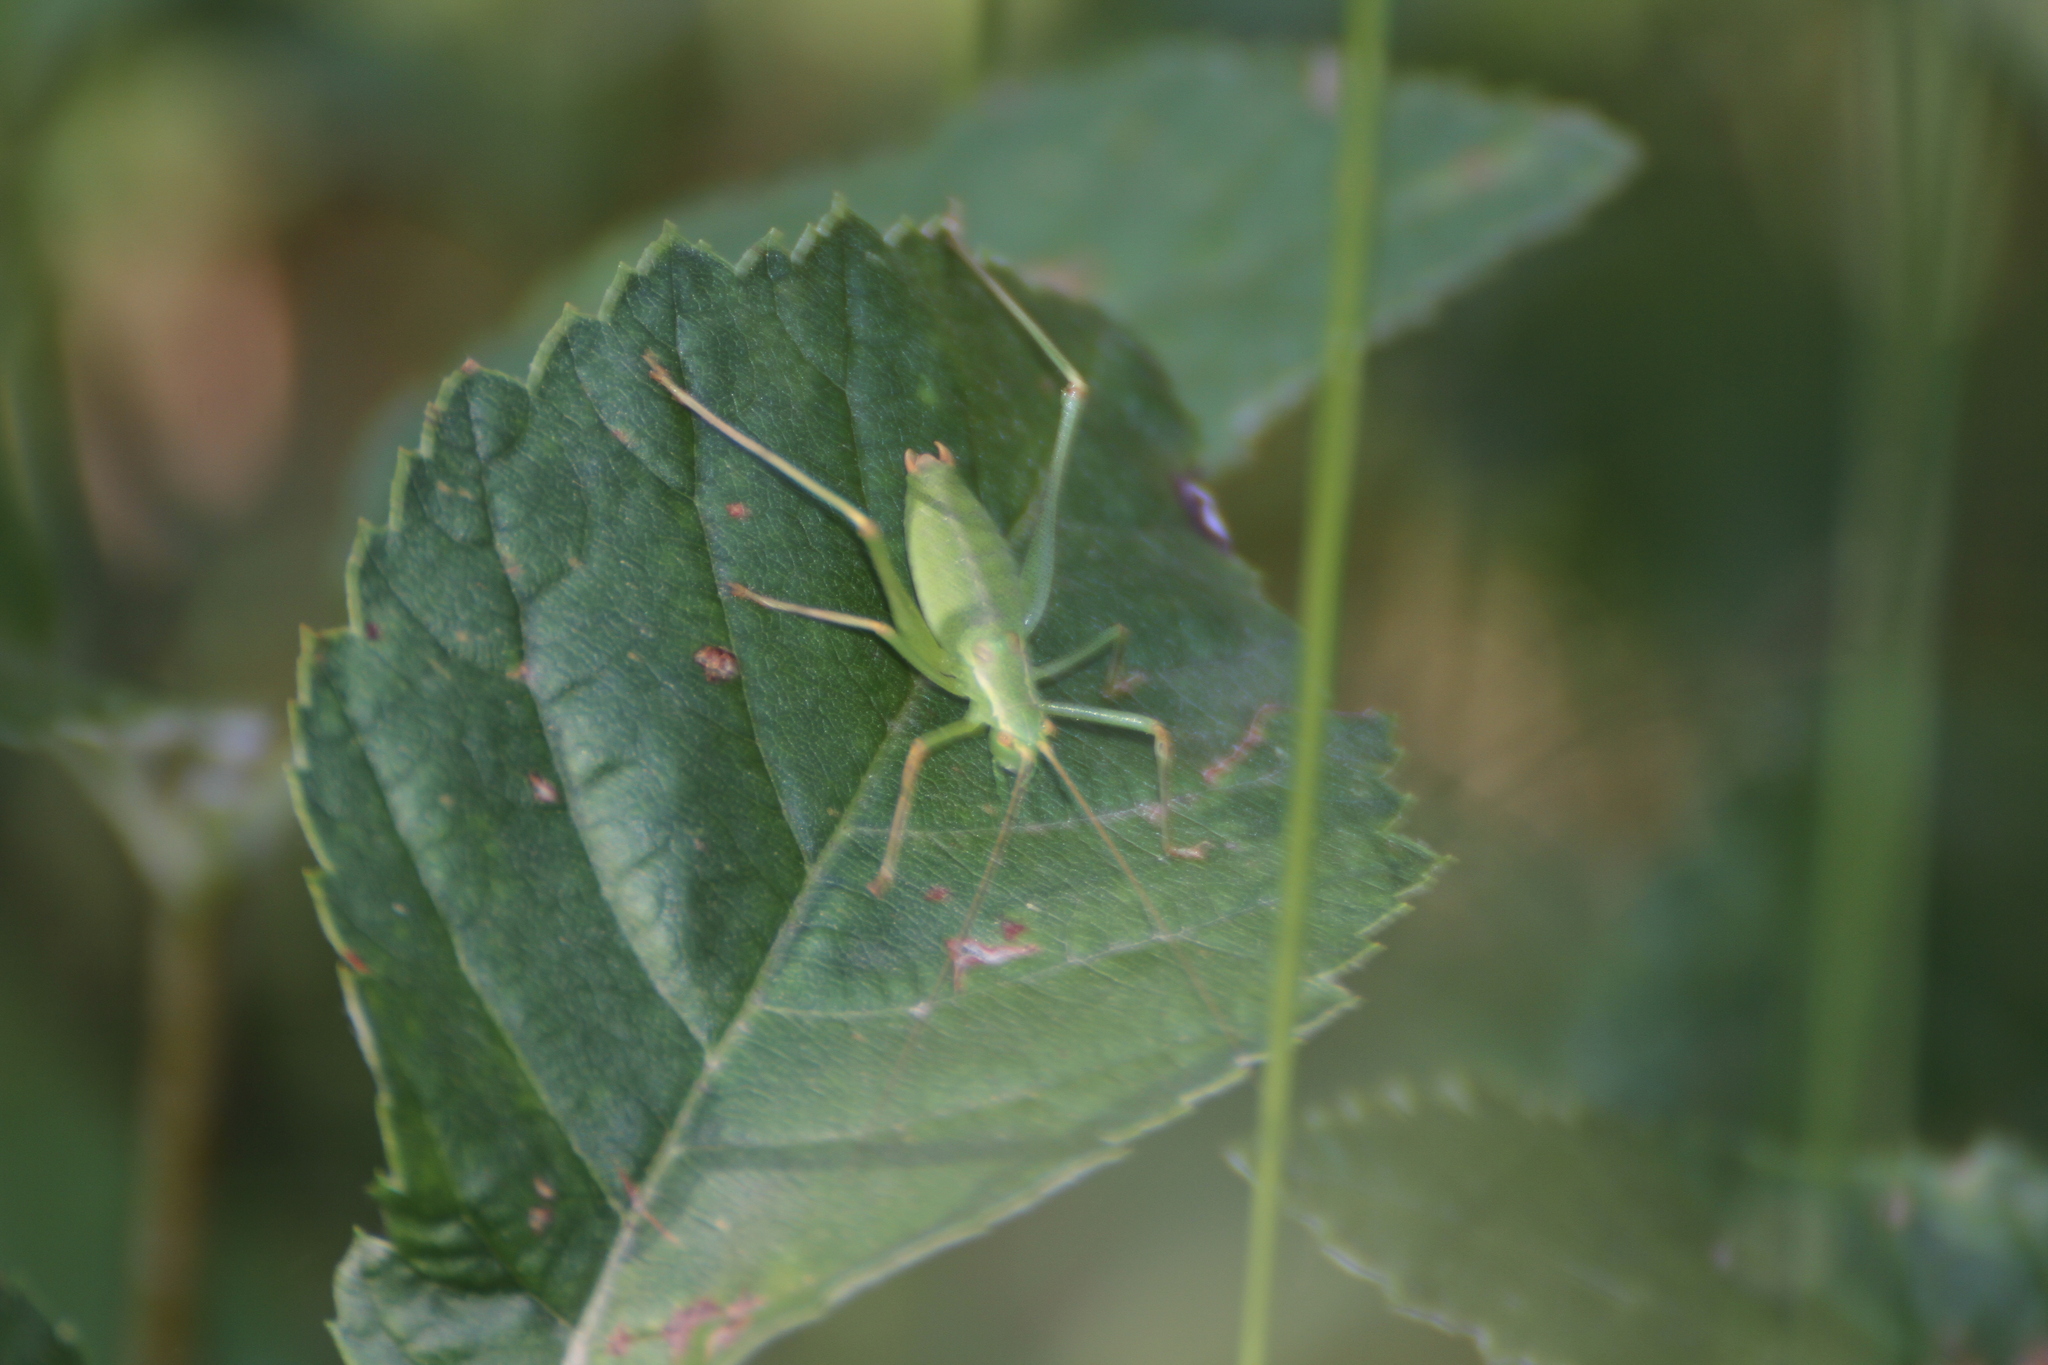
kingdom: Animalia
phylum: Arthropoda
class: Insecta
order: Orthoptera
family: Tettigoniidae
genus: Leptophyes
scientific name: Leptophyes punctatissima
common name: Speckled bush-cricket
